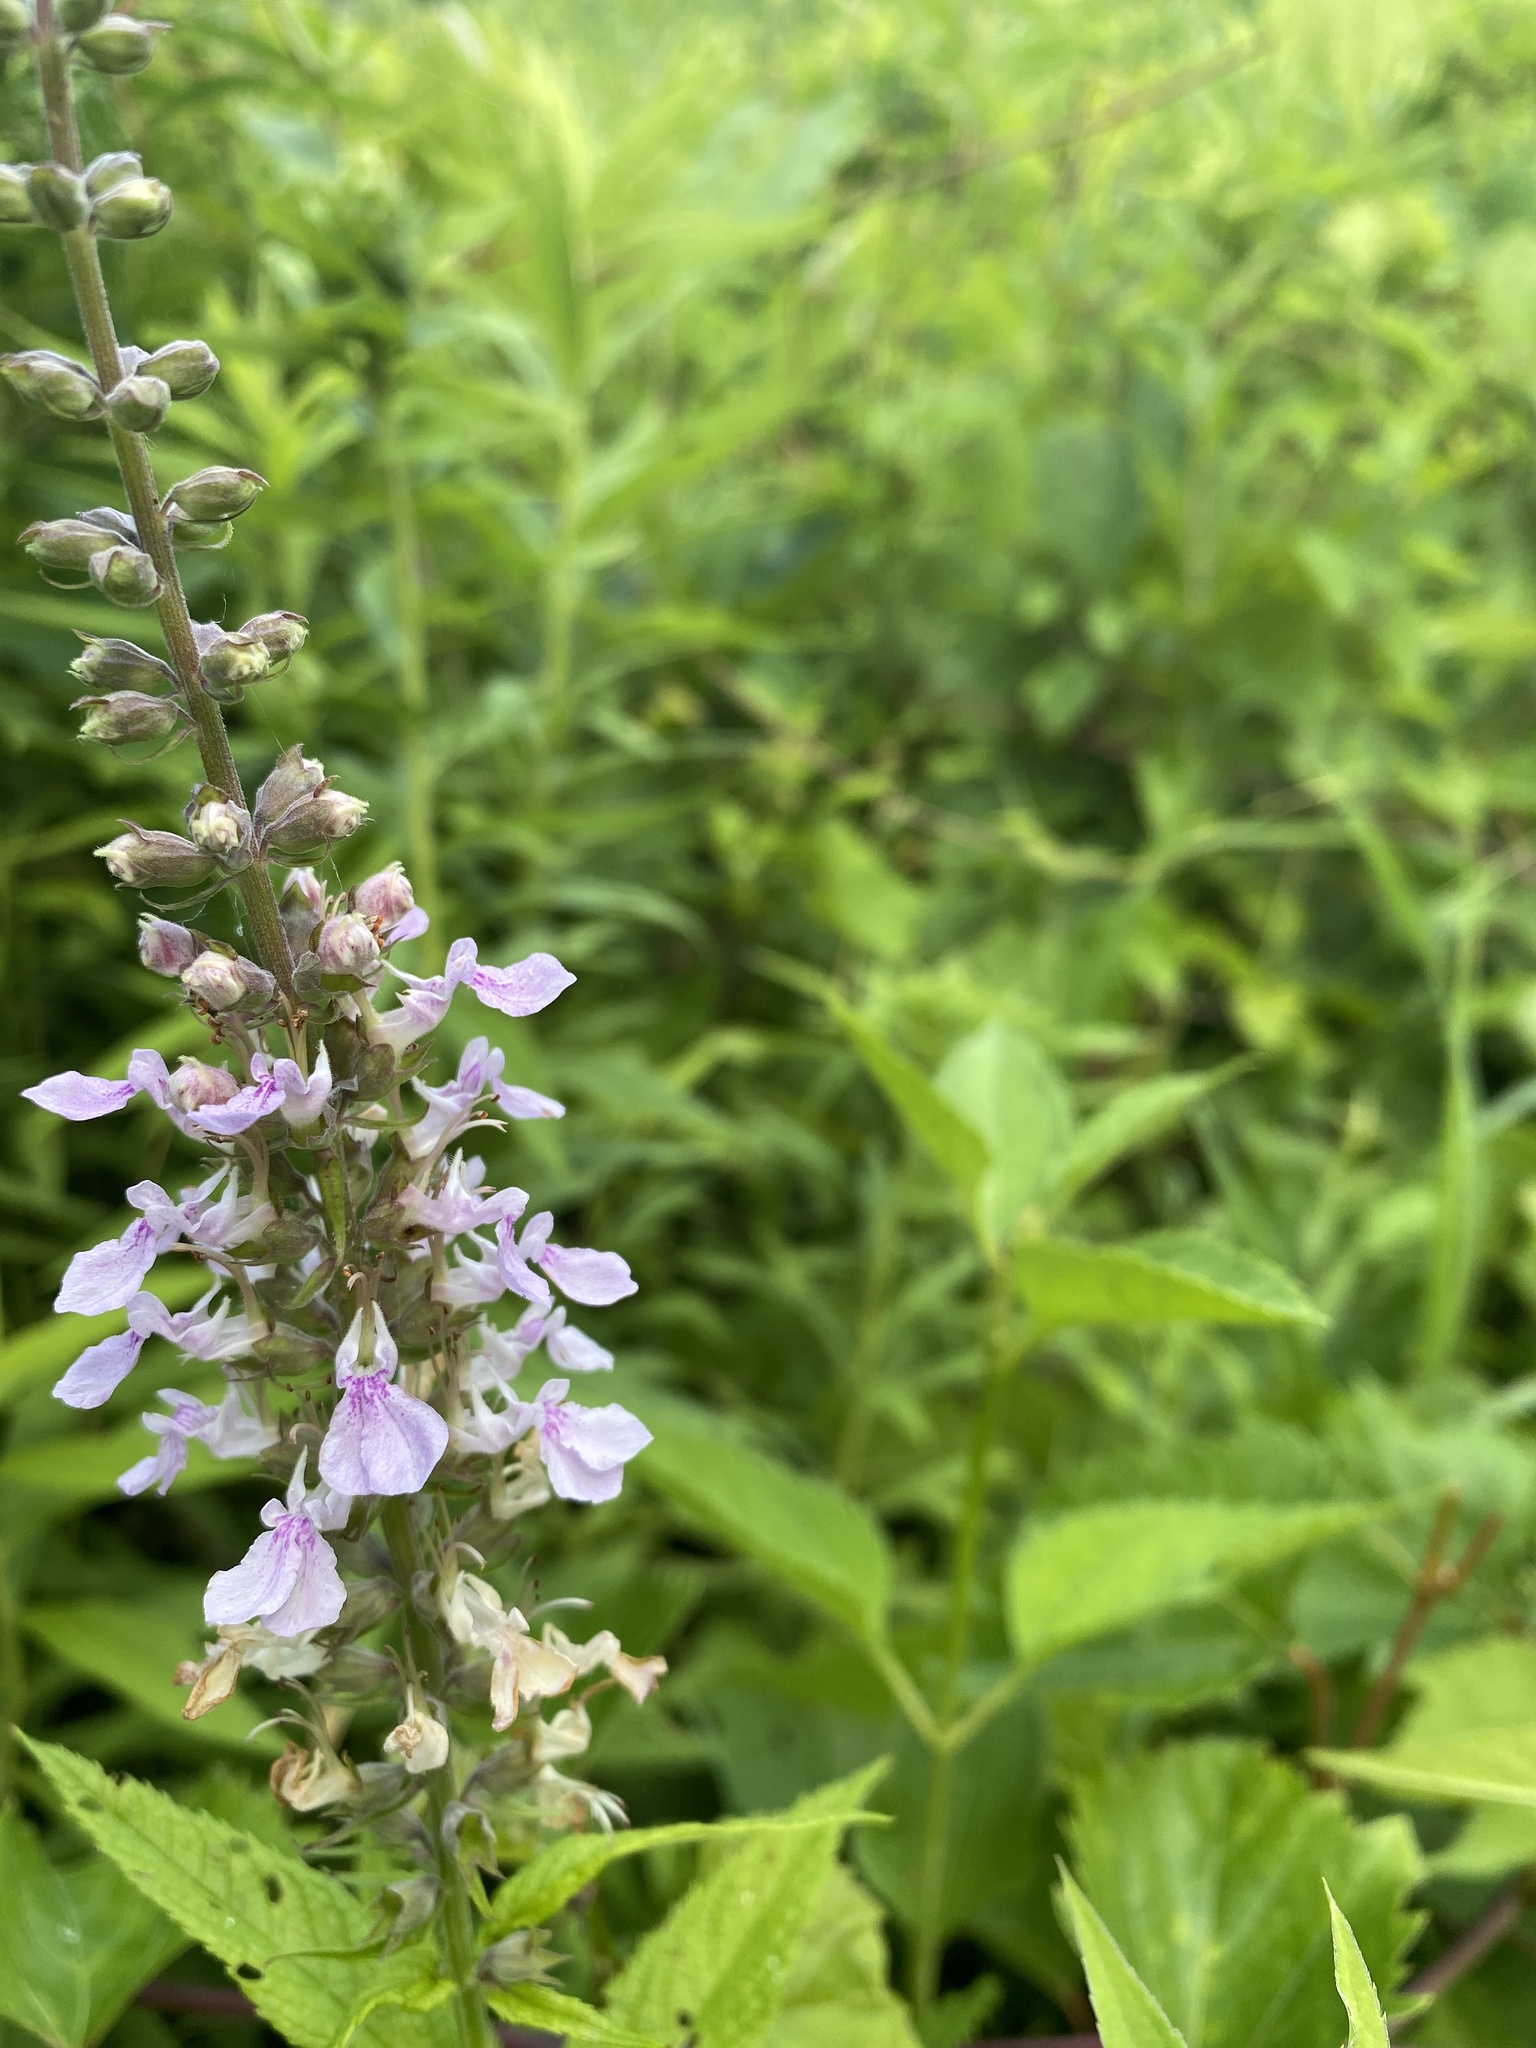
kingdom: Plantae
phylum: Tracheophyta
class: Magnoliopsida
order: Lamiales
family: Lamiaceae
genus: Teucrium
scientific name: Teucrium canadense
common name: American germander
